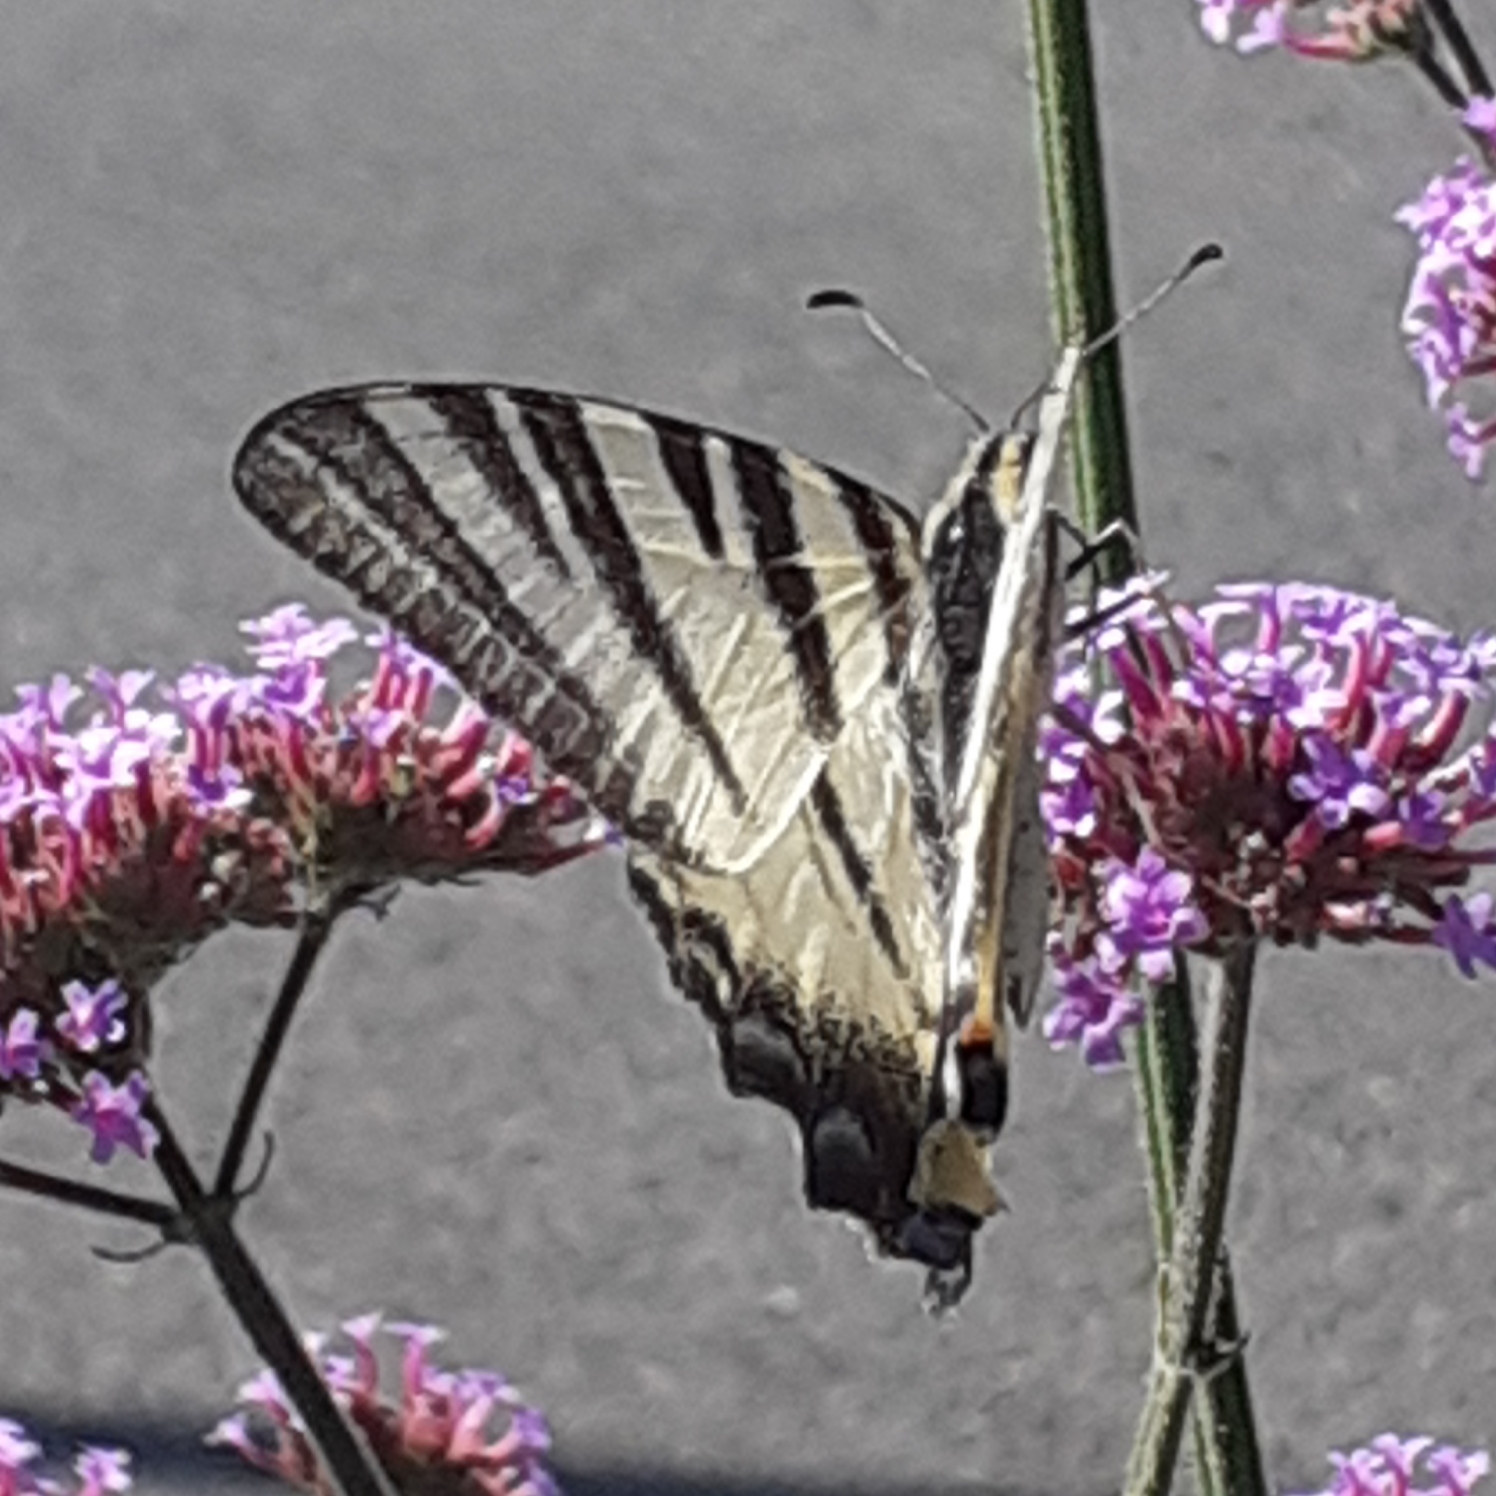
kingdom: Animalia
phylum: Arthropoda
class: Insecta
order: Lepidoptera
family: Papilionidae
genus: Iphiclides
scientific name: Iphiclides podalirius
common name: Scarce swallowtail
